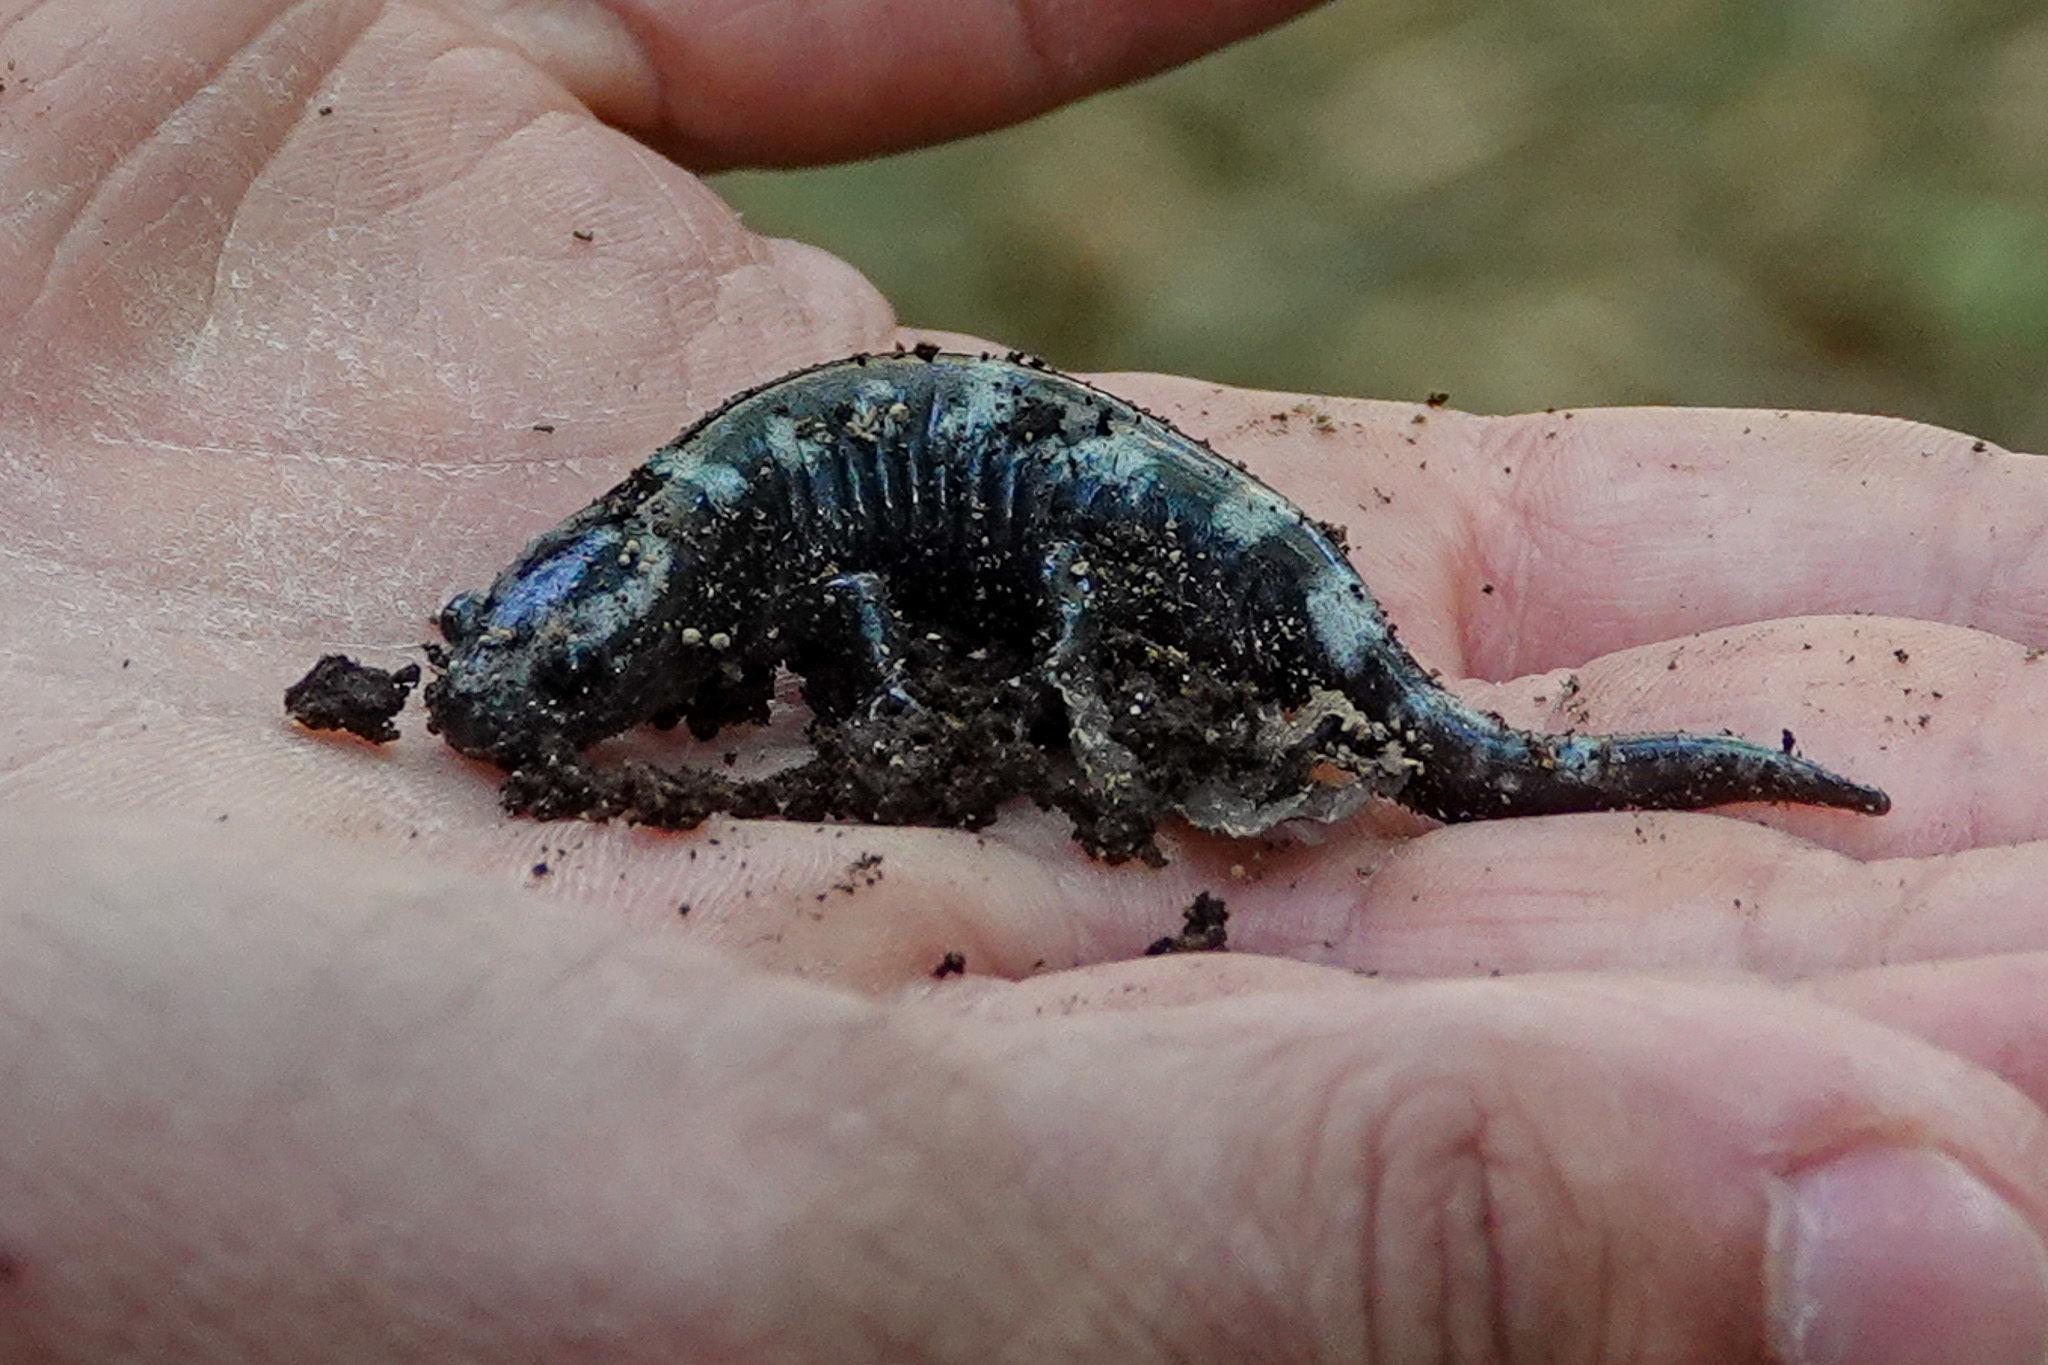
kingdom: Animalia
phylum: Chordata
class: Amphibia
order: Caudata
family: Ambystomatidae
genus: Ambystoma
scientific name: Ambystoma opacum
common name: Marbled salamander
